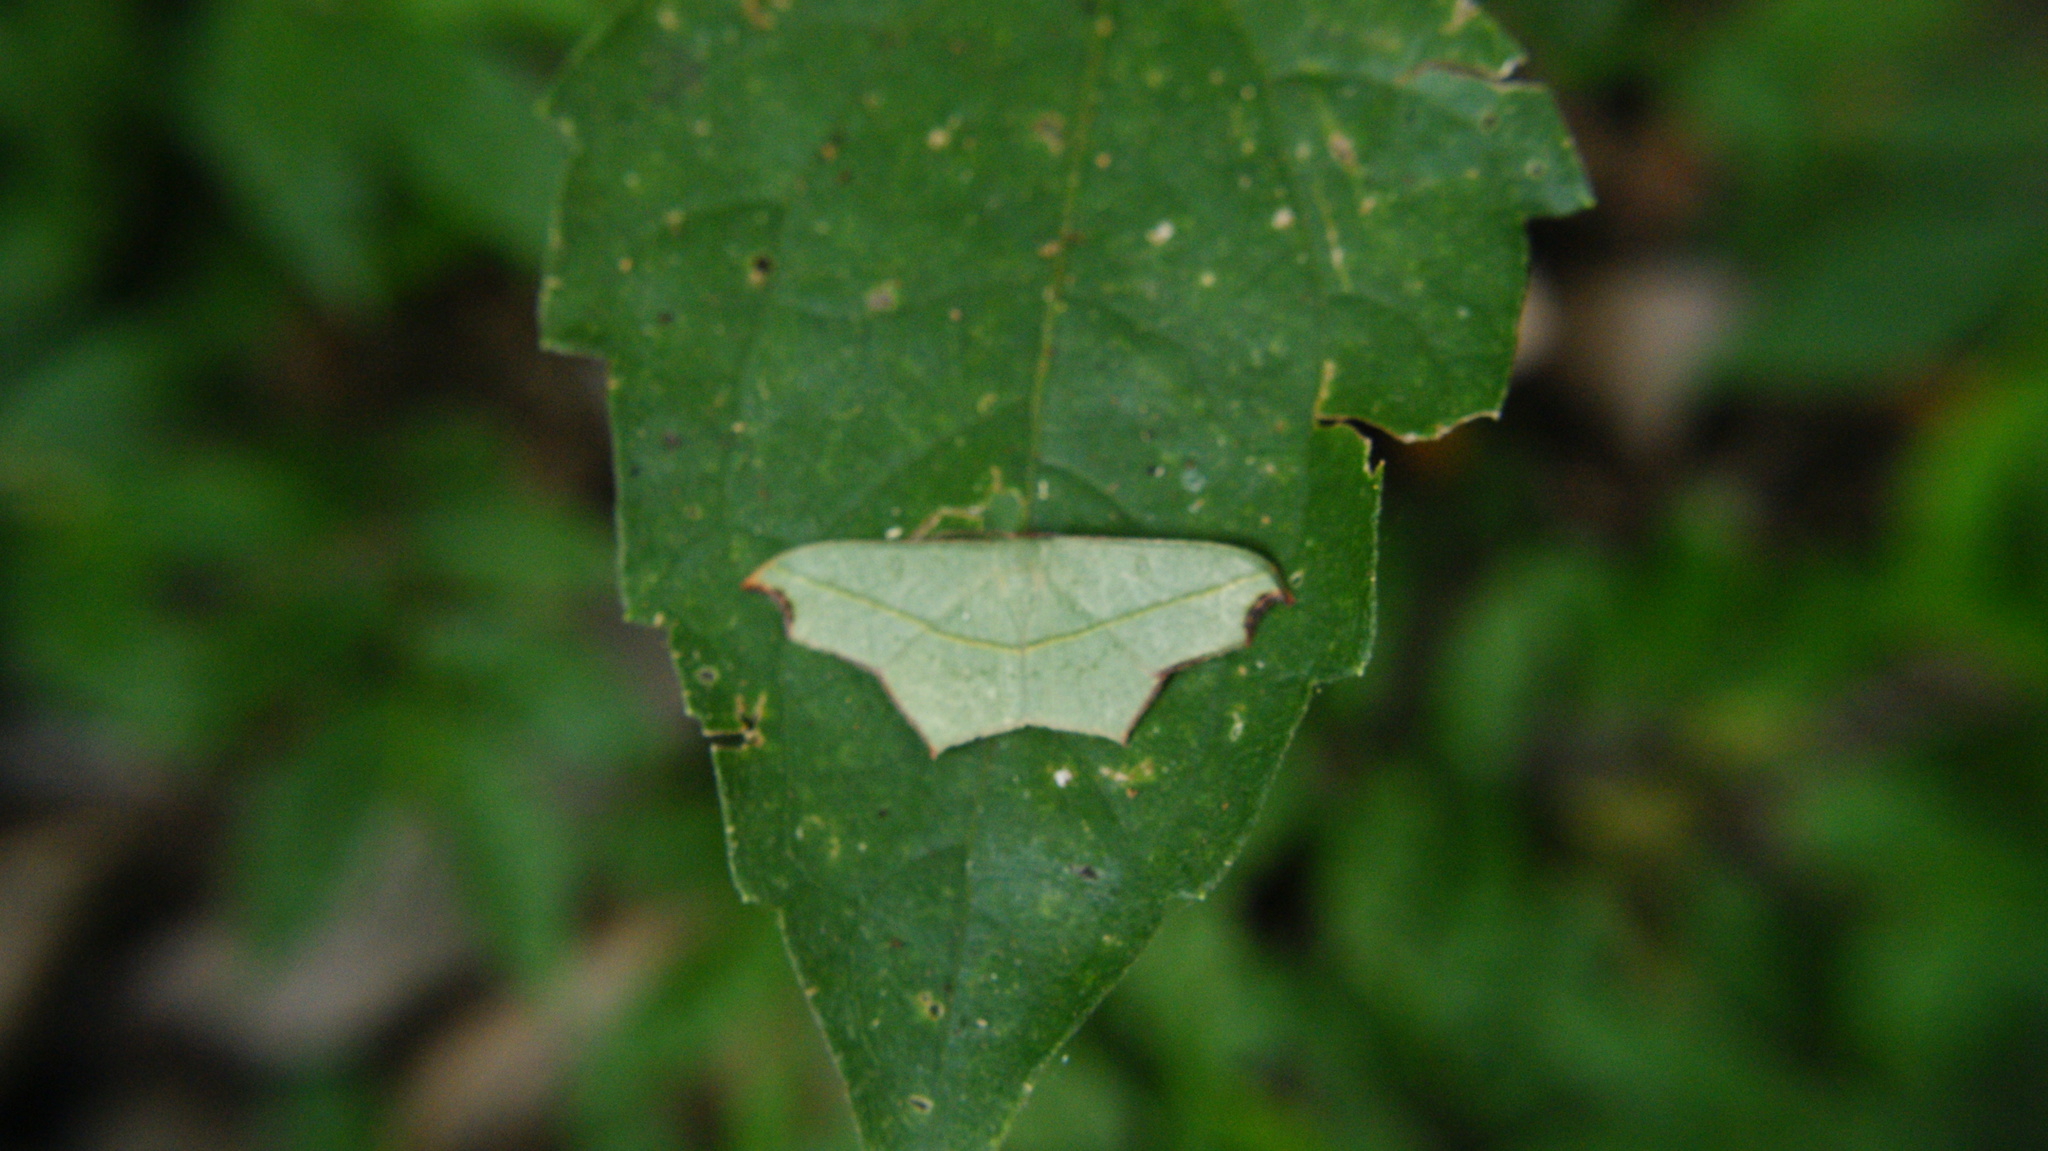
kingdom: Animalia
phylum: Arthropoda
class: Insecta
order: Lepidoptera
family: Geometridae
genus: Traminda
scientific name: Traminda aventiaria
